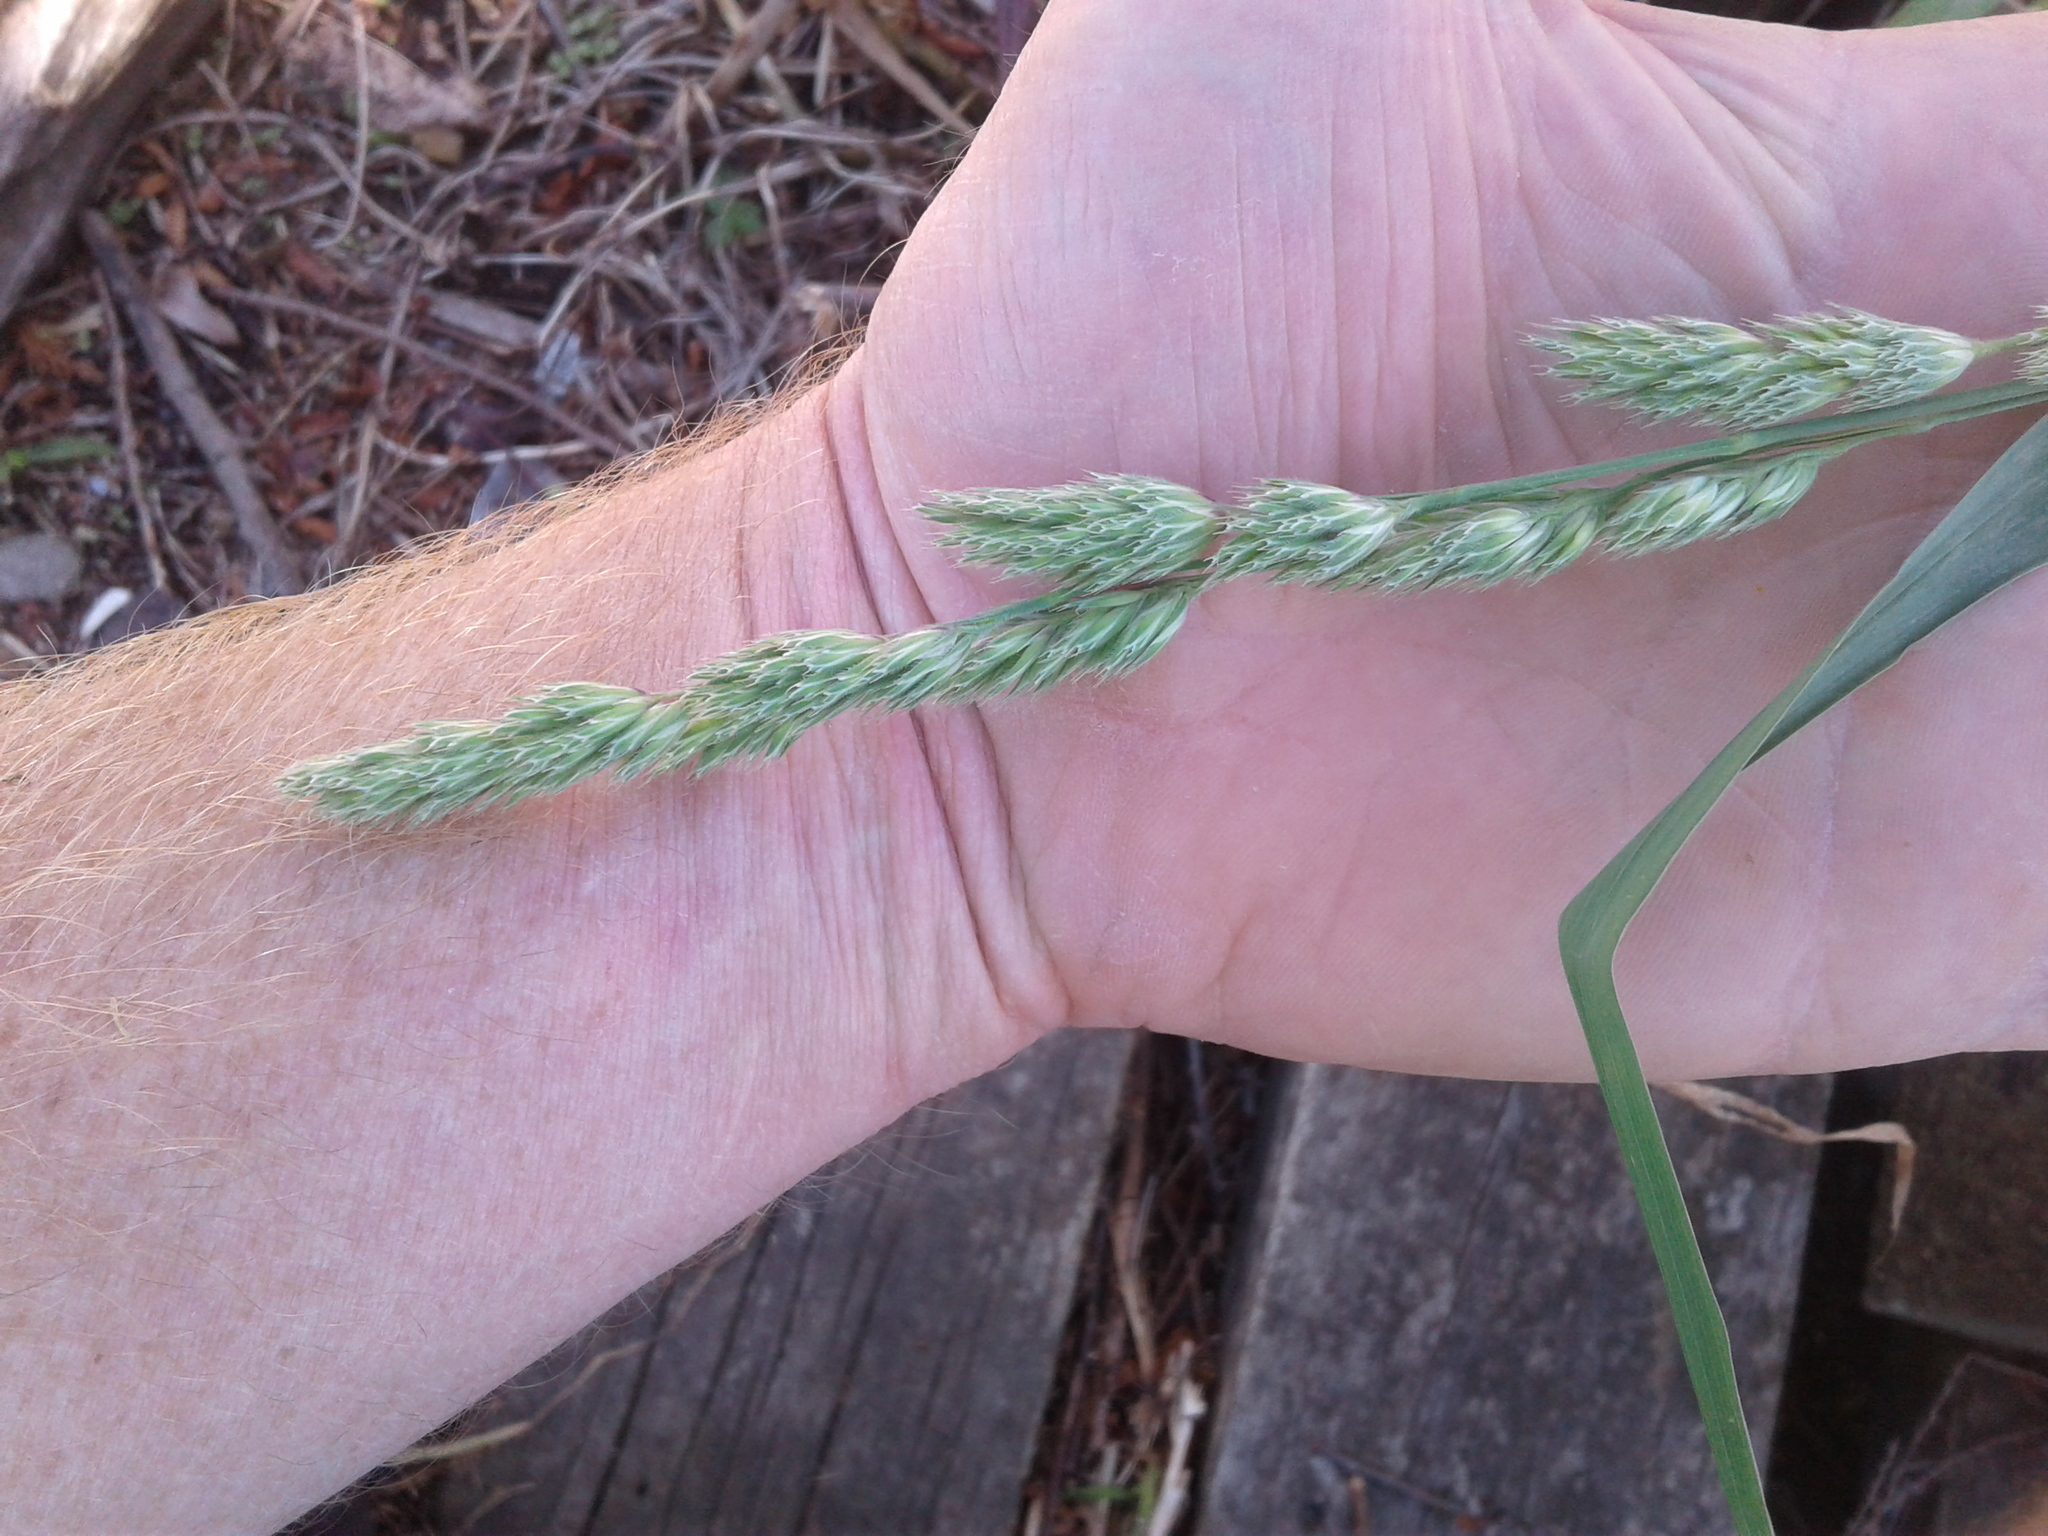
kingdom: Plantae
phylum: Tracheophyta
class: Liliopsida
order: Poales
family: Poaceae
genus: Dactylis
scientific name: Dactylis glomerata
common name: Orchardgrass
